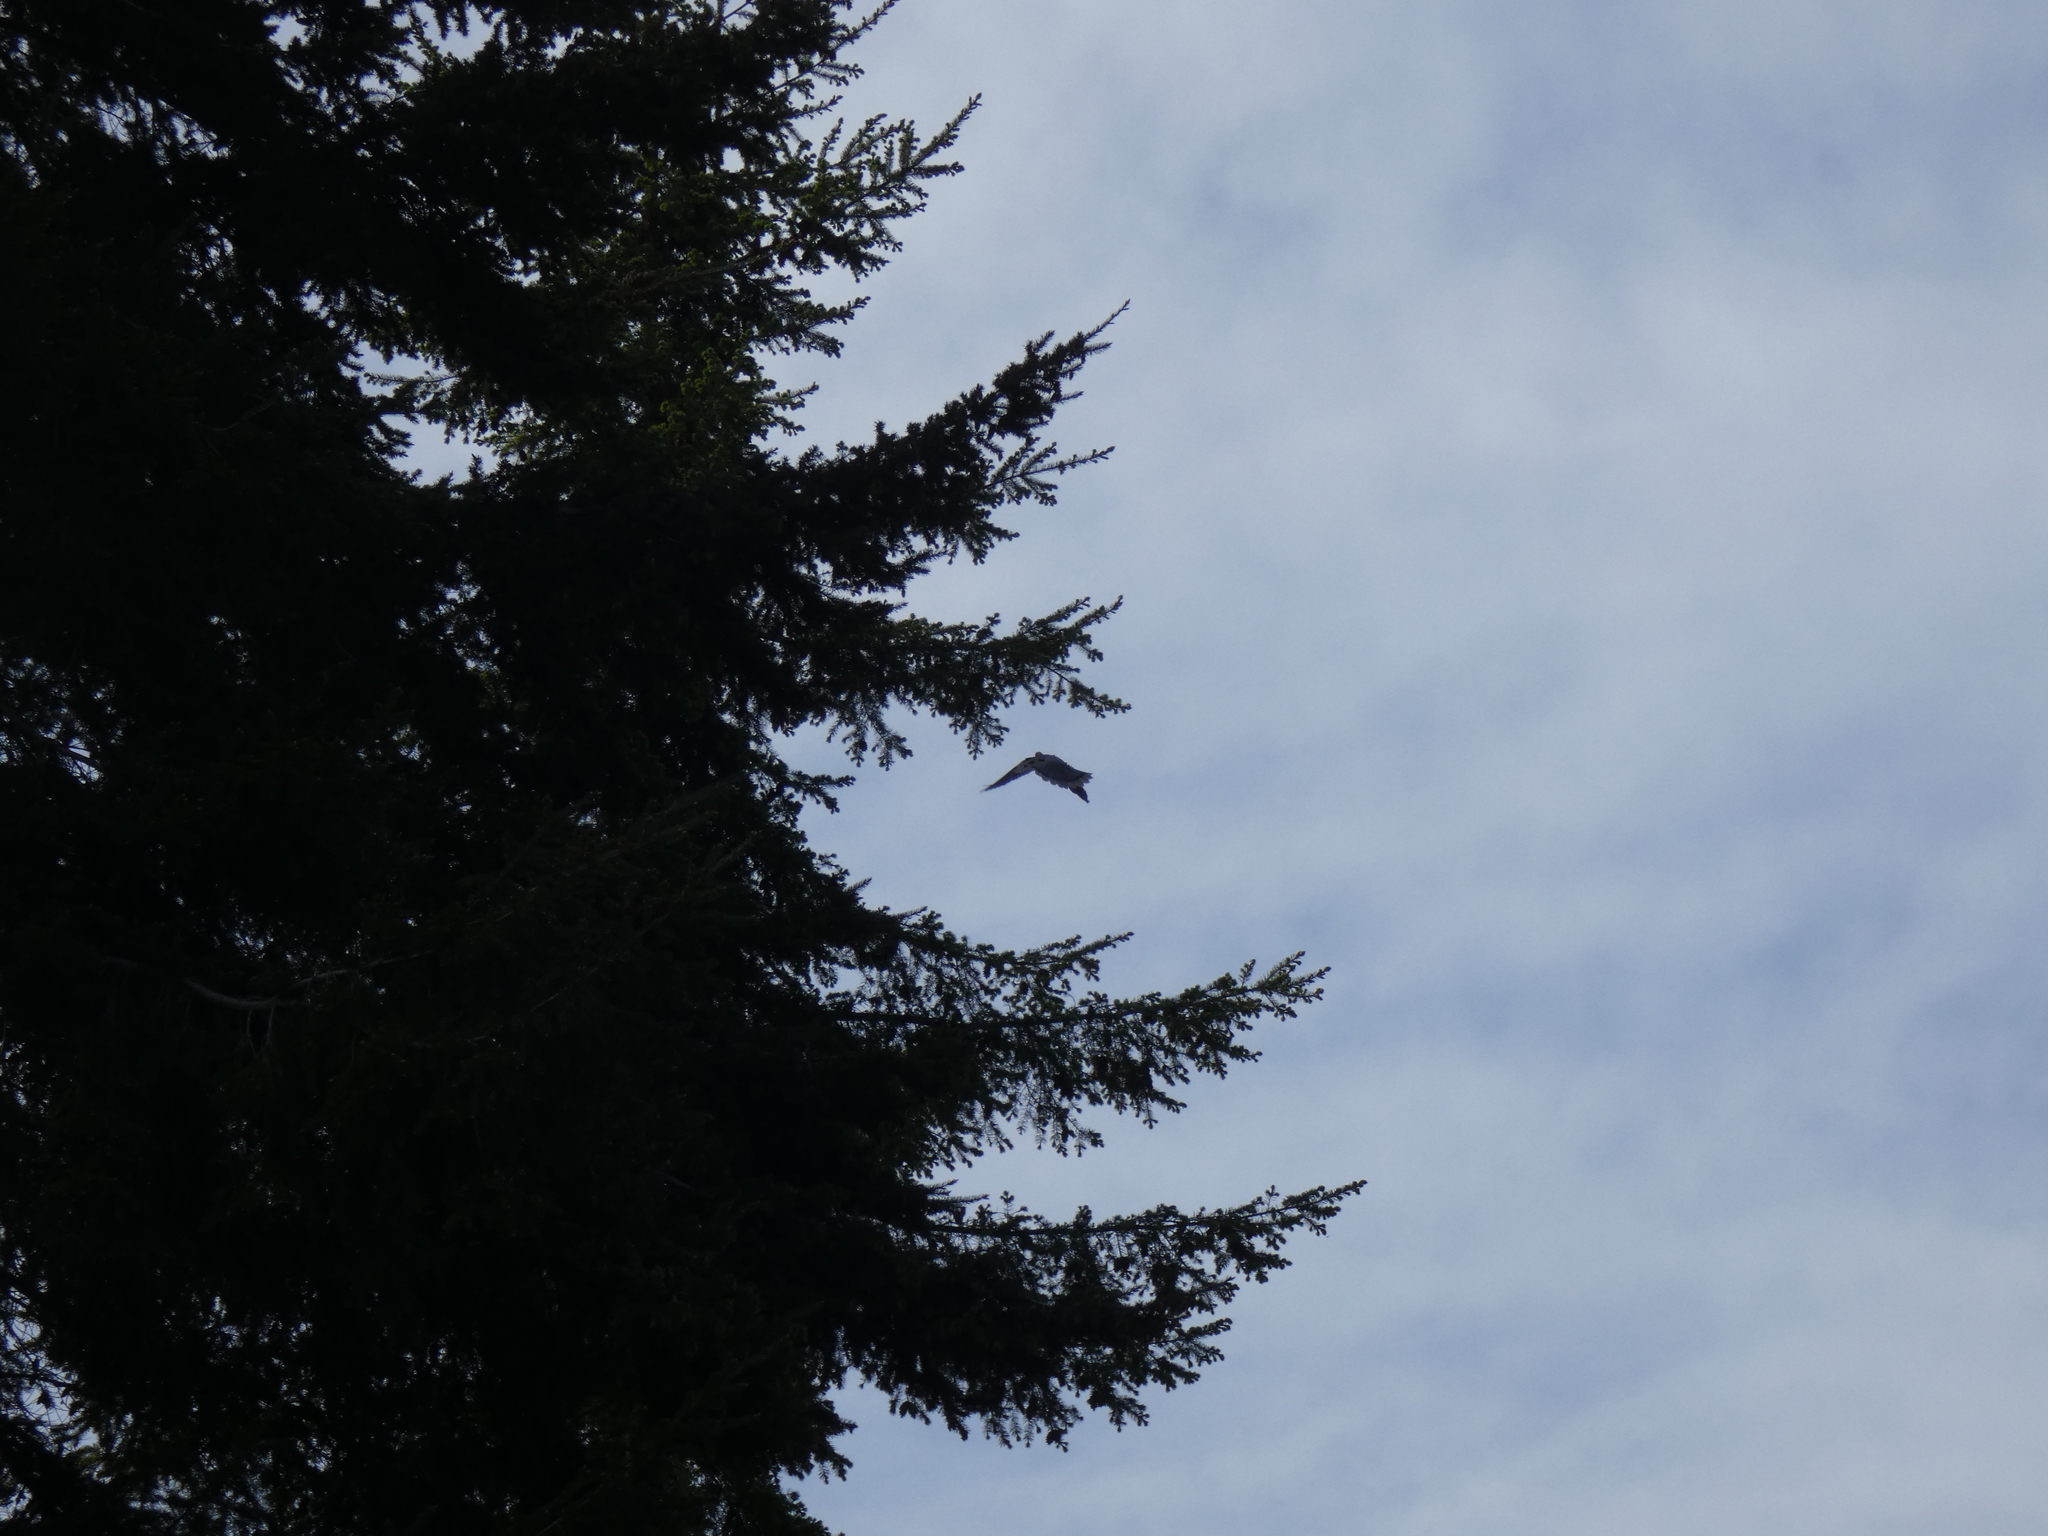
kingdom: Animalia
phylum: Chordata
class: Aves
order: Columbiformes
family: Columbidae
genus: Patagioenas
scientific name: Patagioenas fasciata
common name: Band-tailed pigeon
